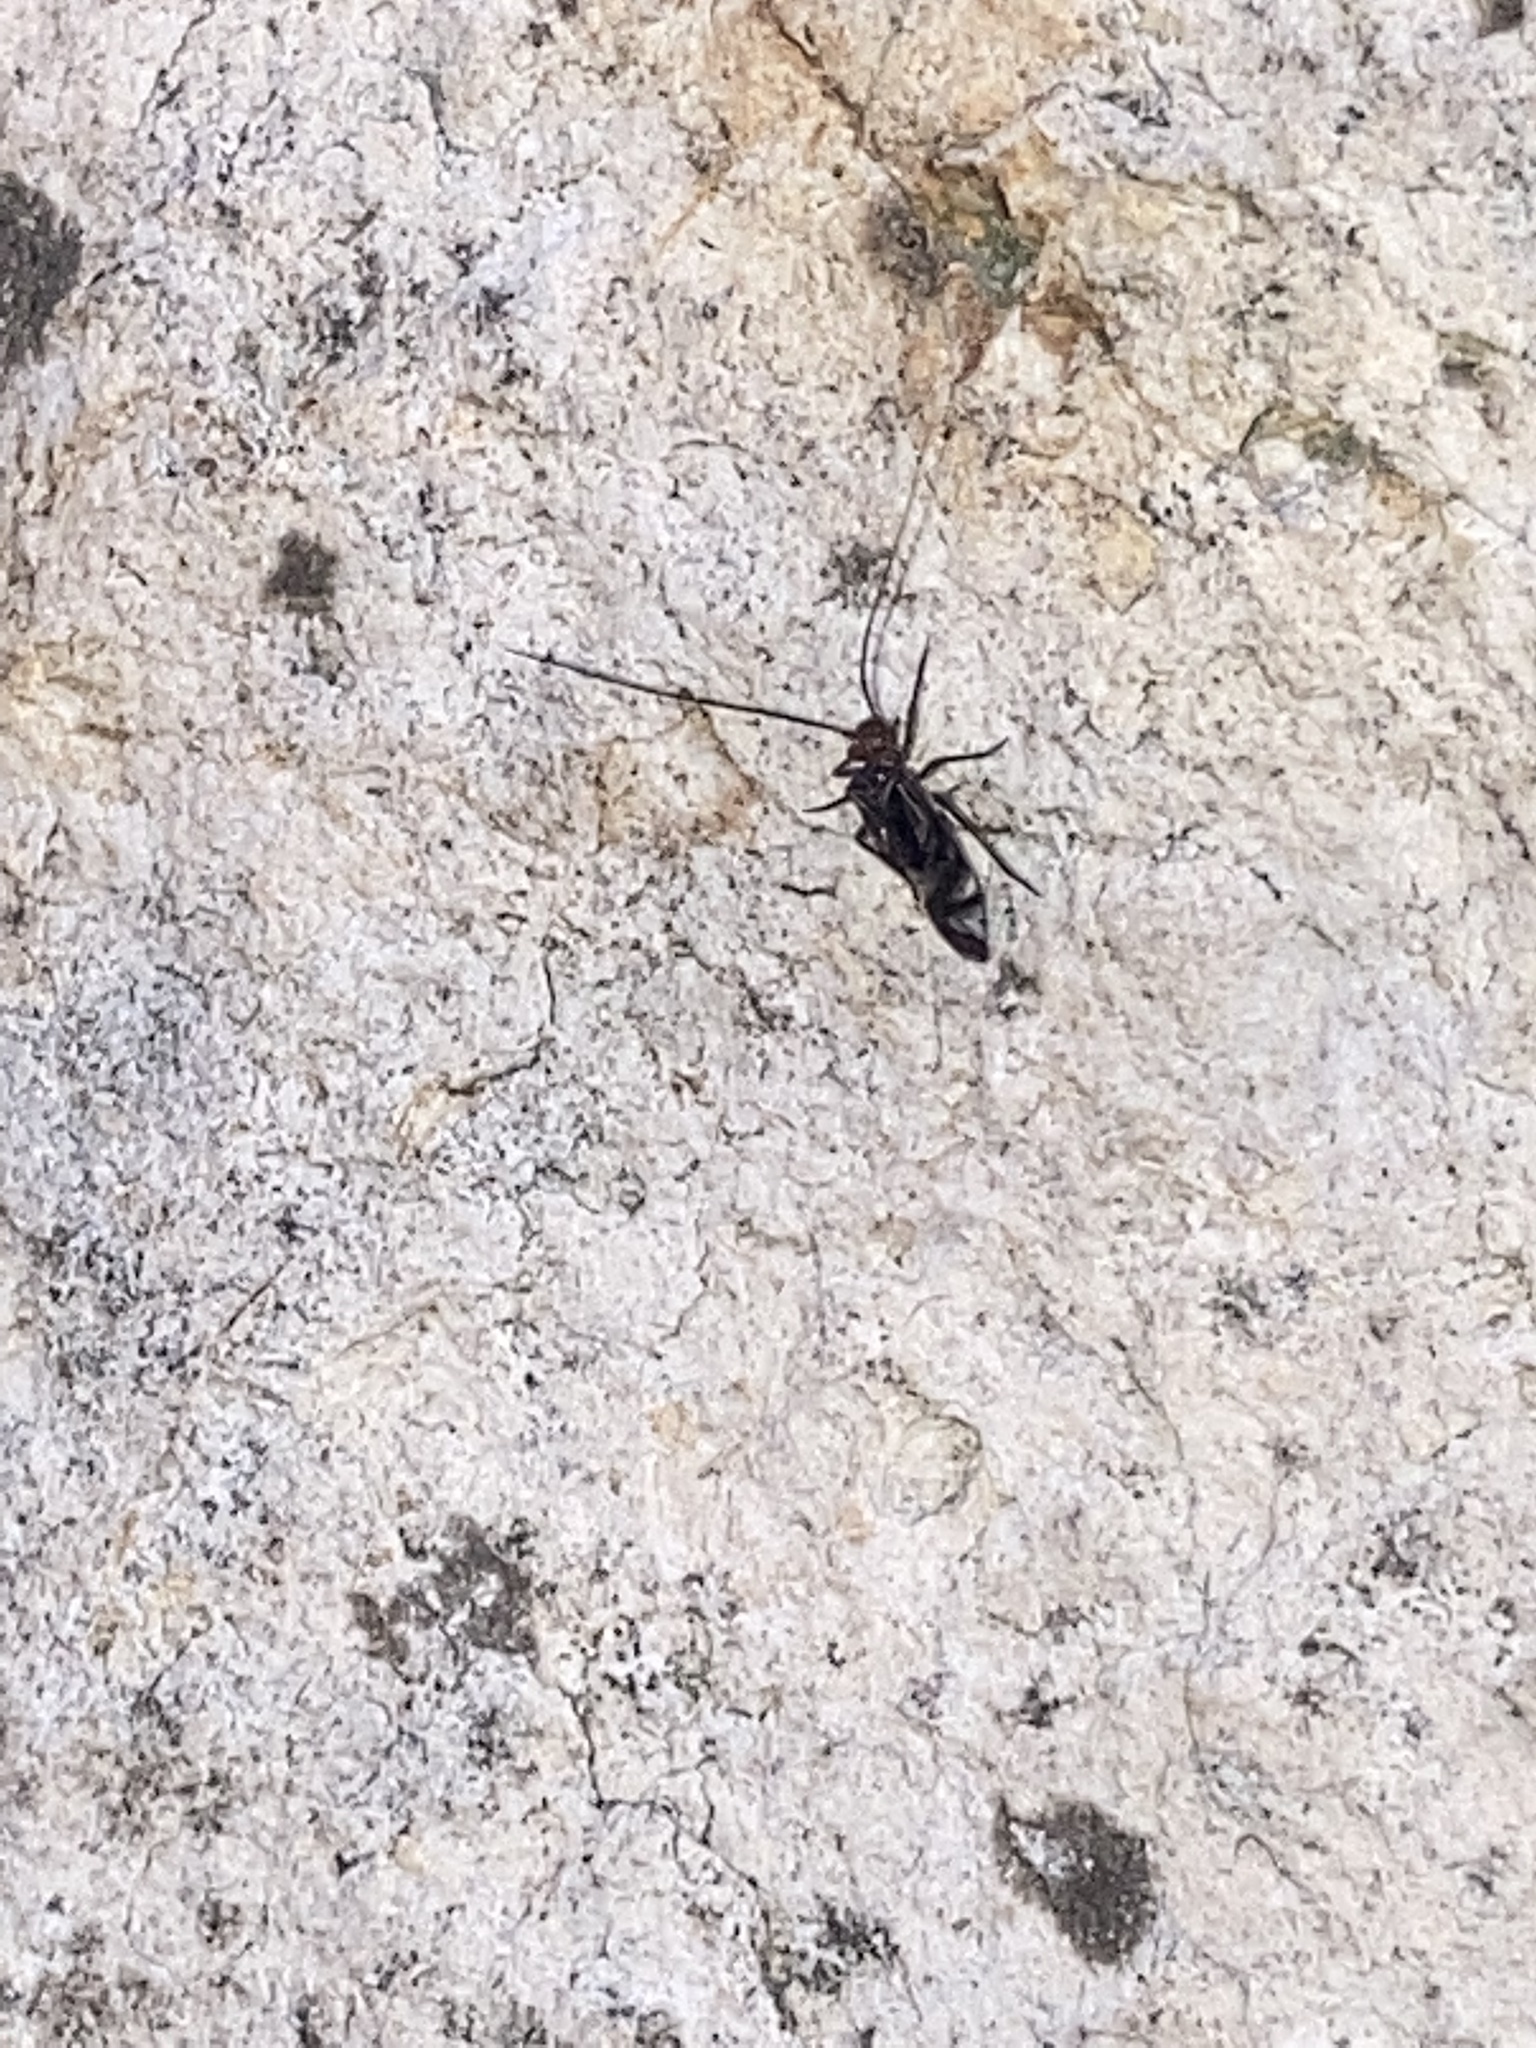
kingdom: Animalia
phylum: Arthropoda
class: Insecta
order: Psocodea
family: Psocidae
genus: Cerastipsocus
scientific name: Cerastipsocus trifasciatus
